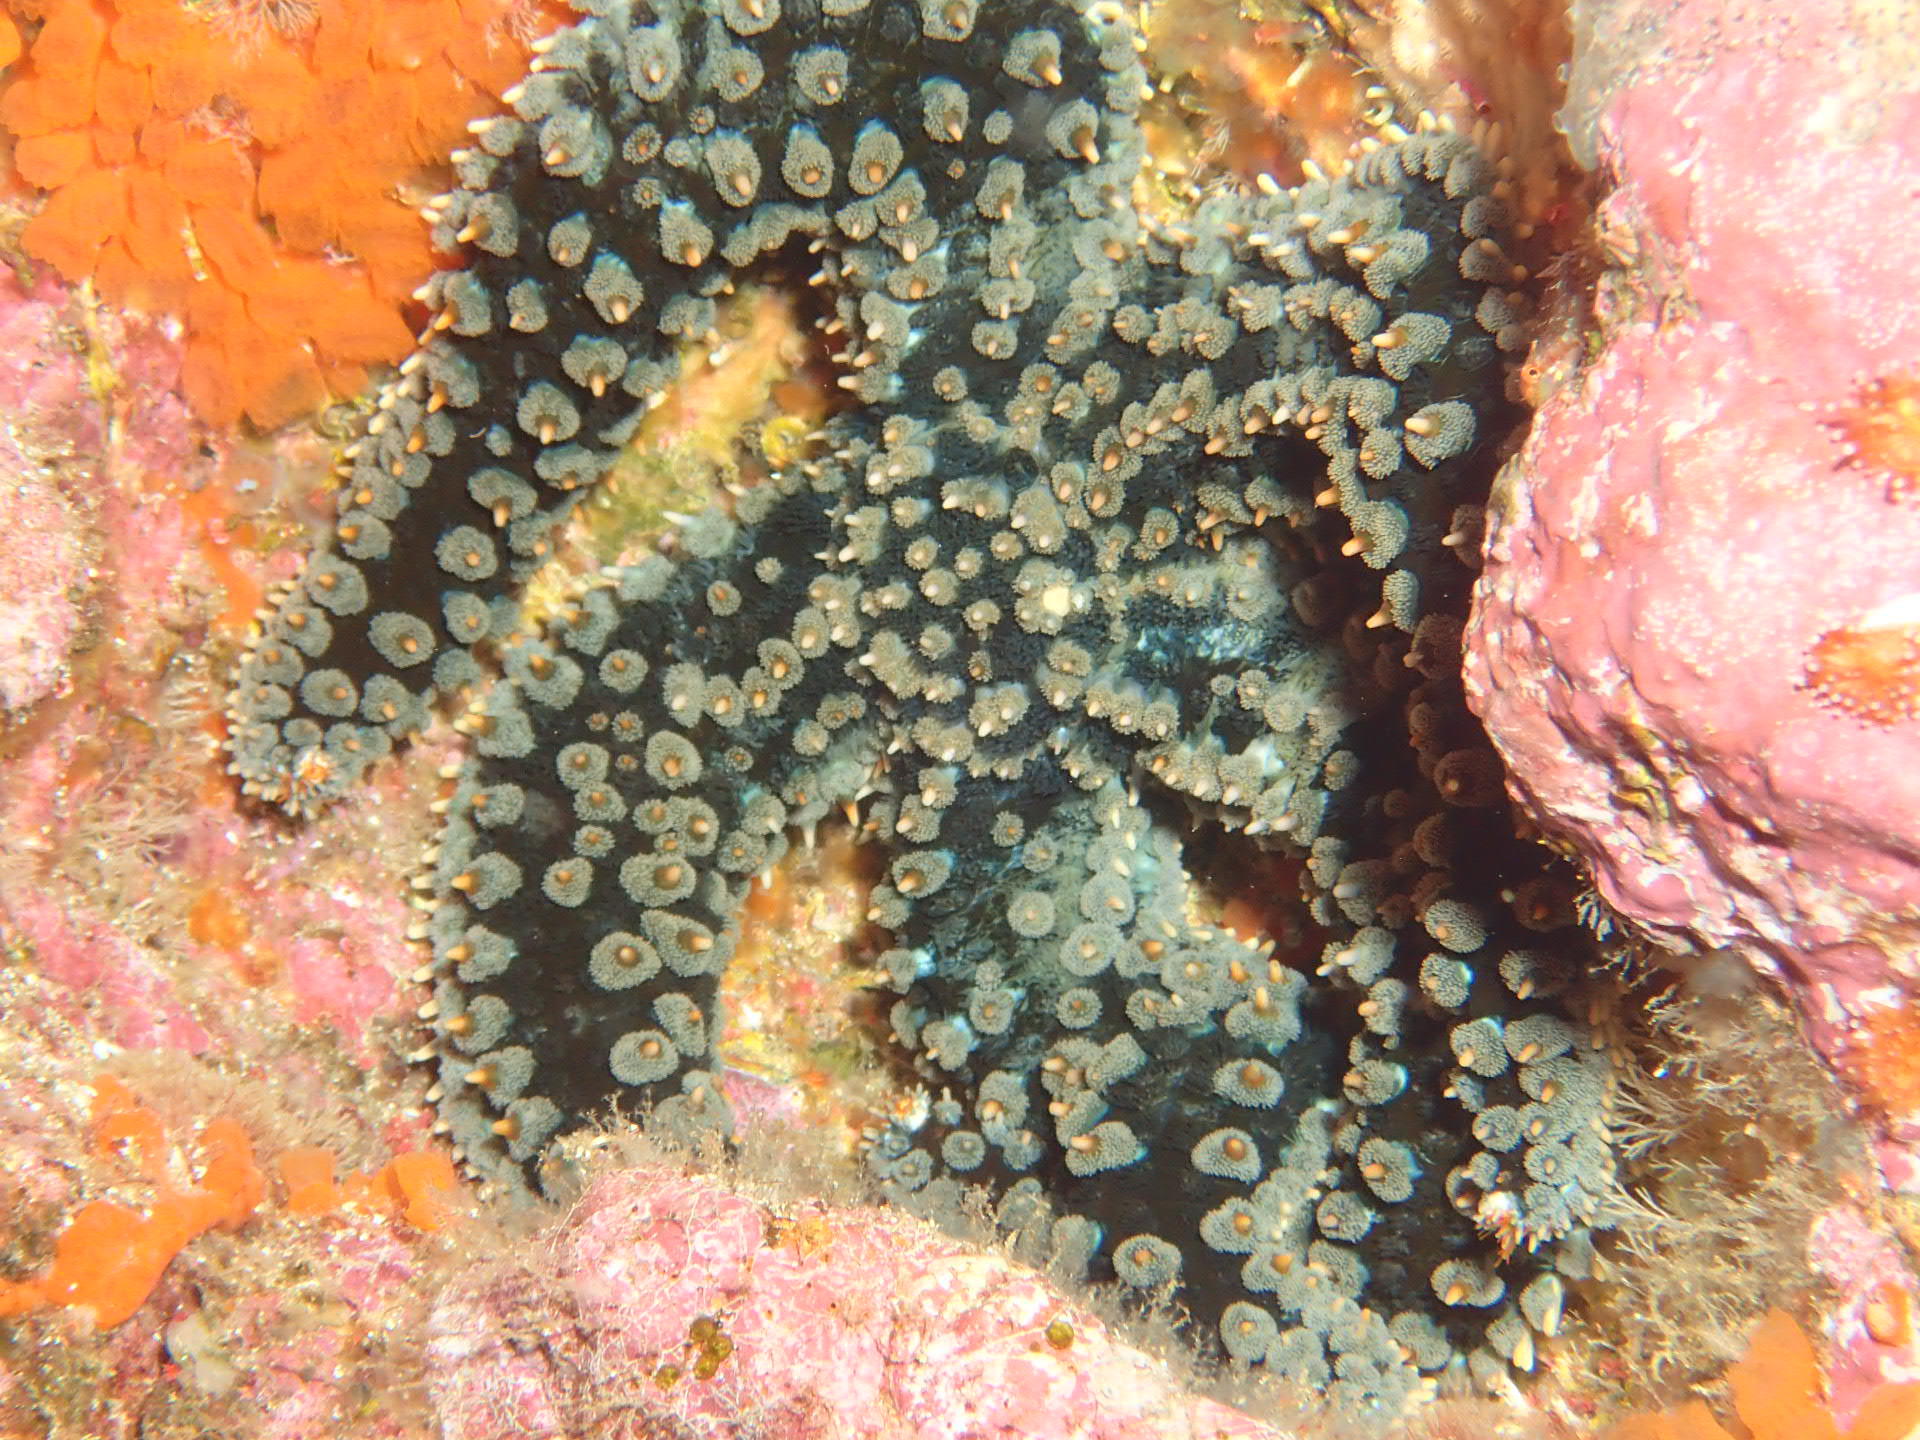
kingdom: Animalia
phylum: Echinodermata
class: Asteroidea
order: Forcipulatida
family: Asteriidae
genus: Marthasterias
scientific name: Marthasterias glacialis
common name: Spiny starfish
